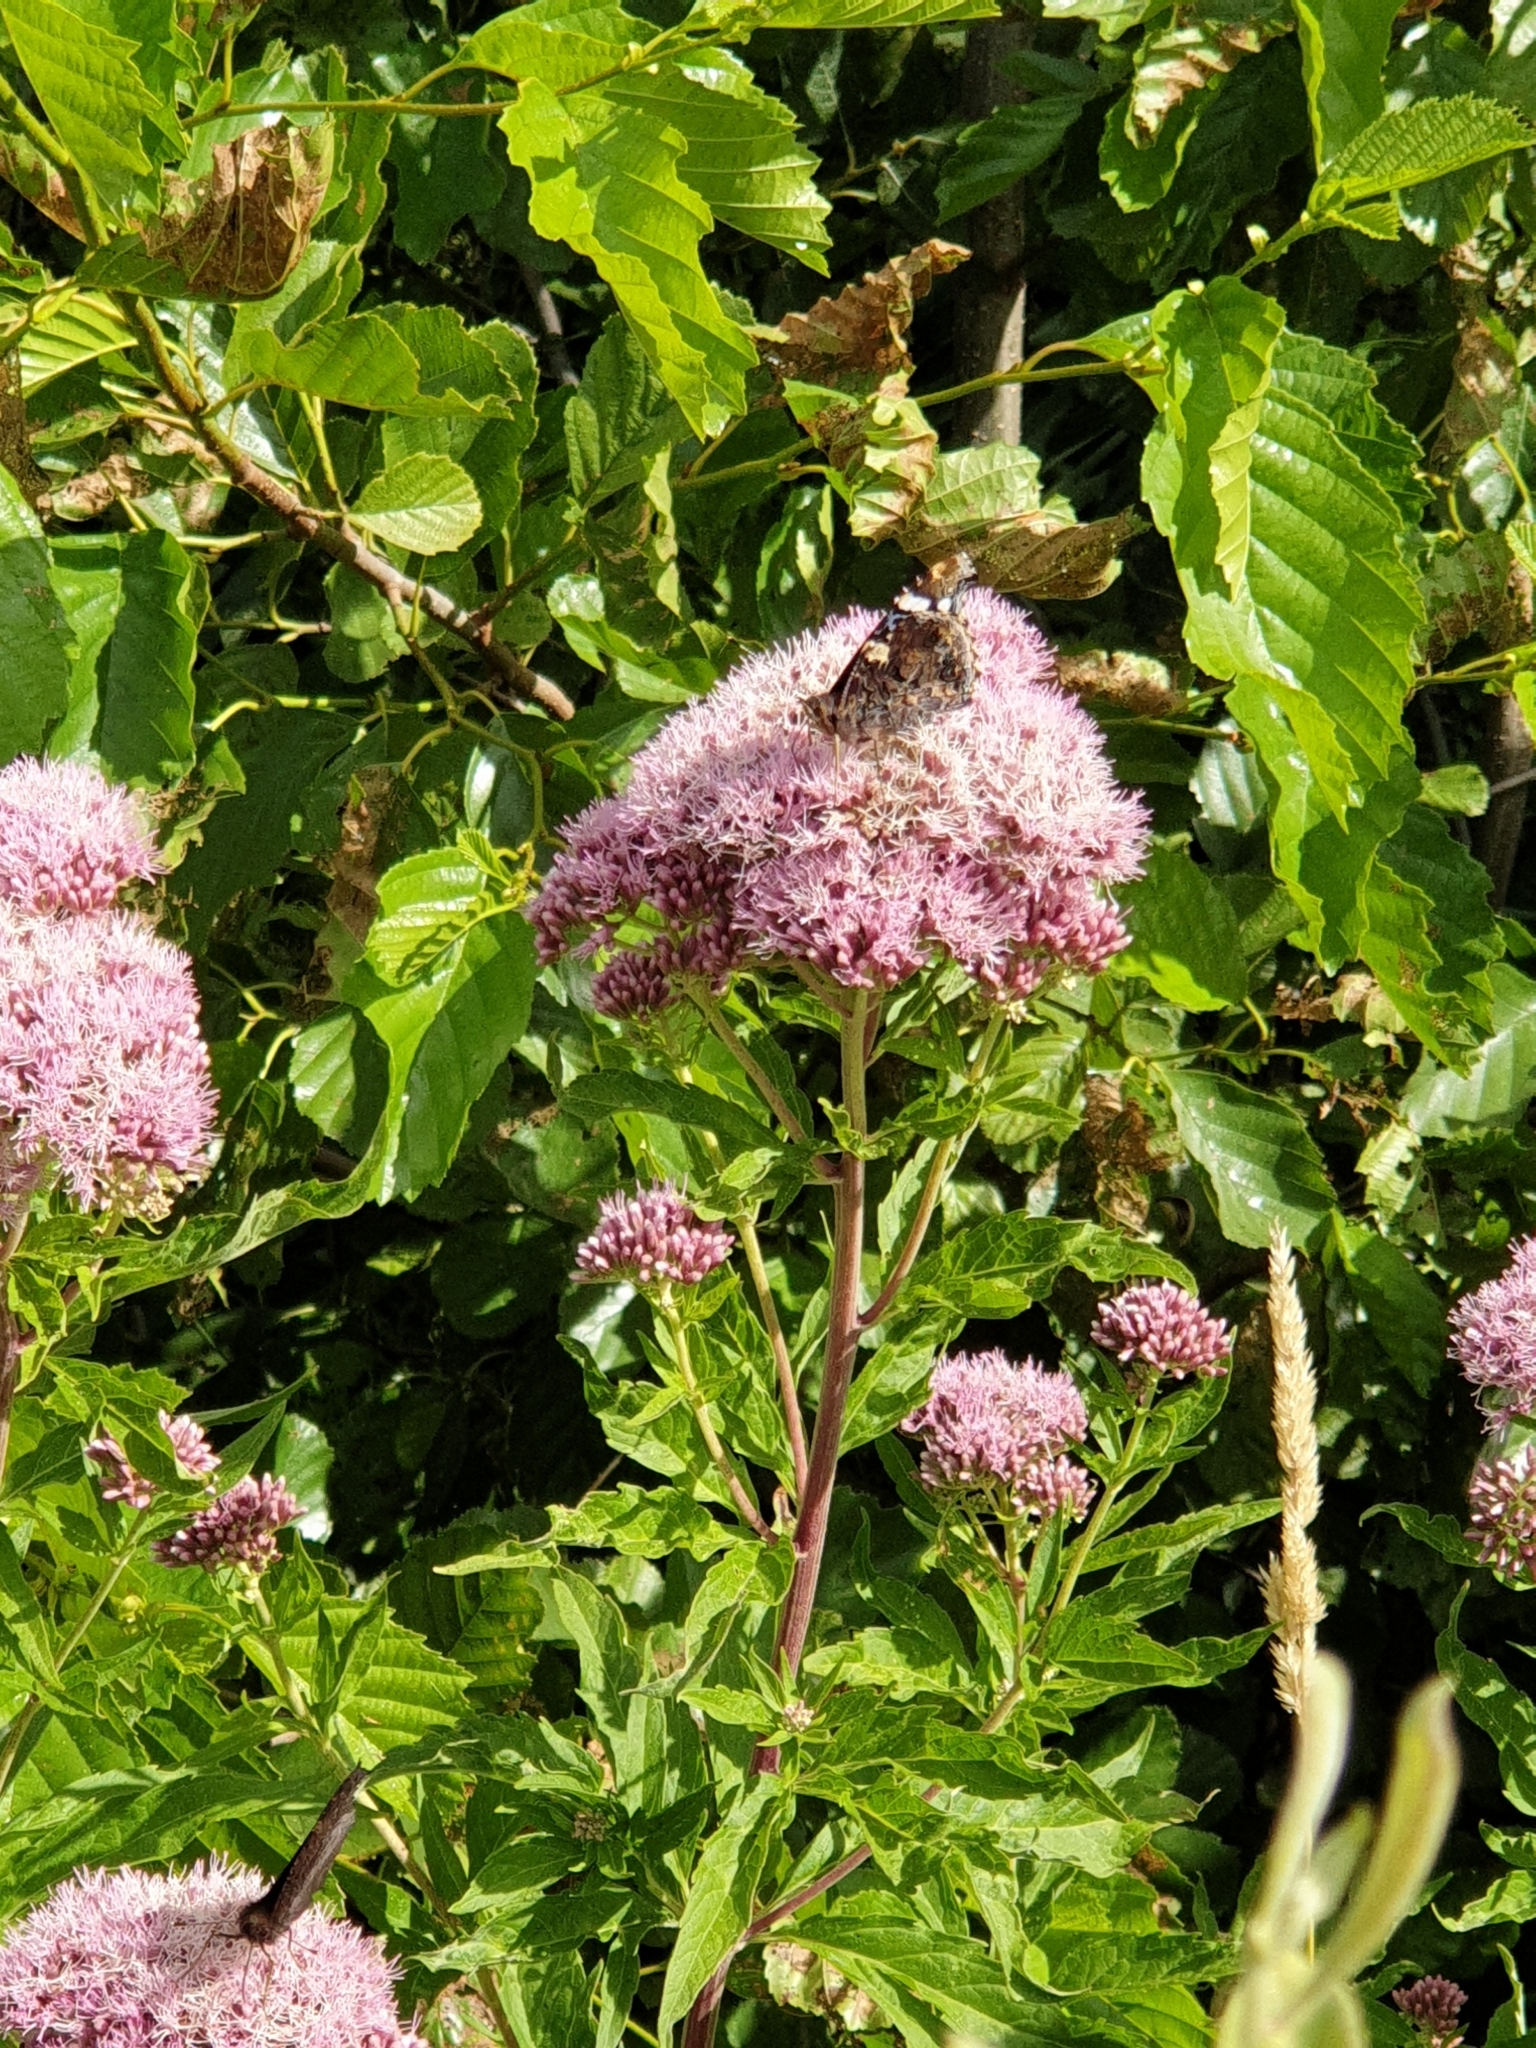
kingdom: Animalia
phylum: Arthropoda
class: Insecta
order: Lepidoptera
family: Nymphalidae
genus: Vanessa
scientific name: Vanessa atalanta
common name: Red admiral
